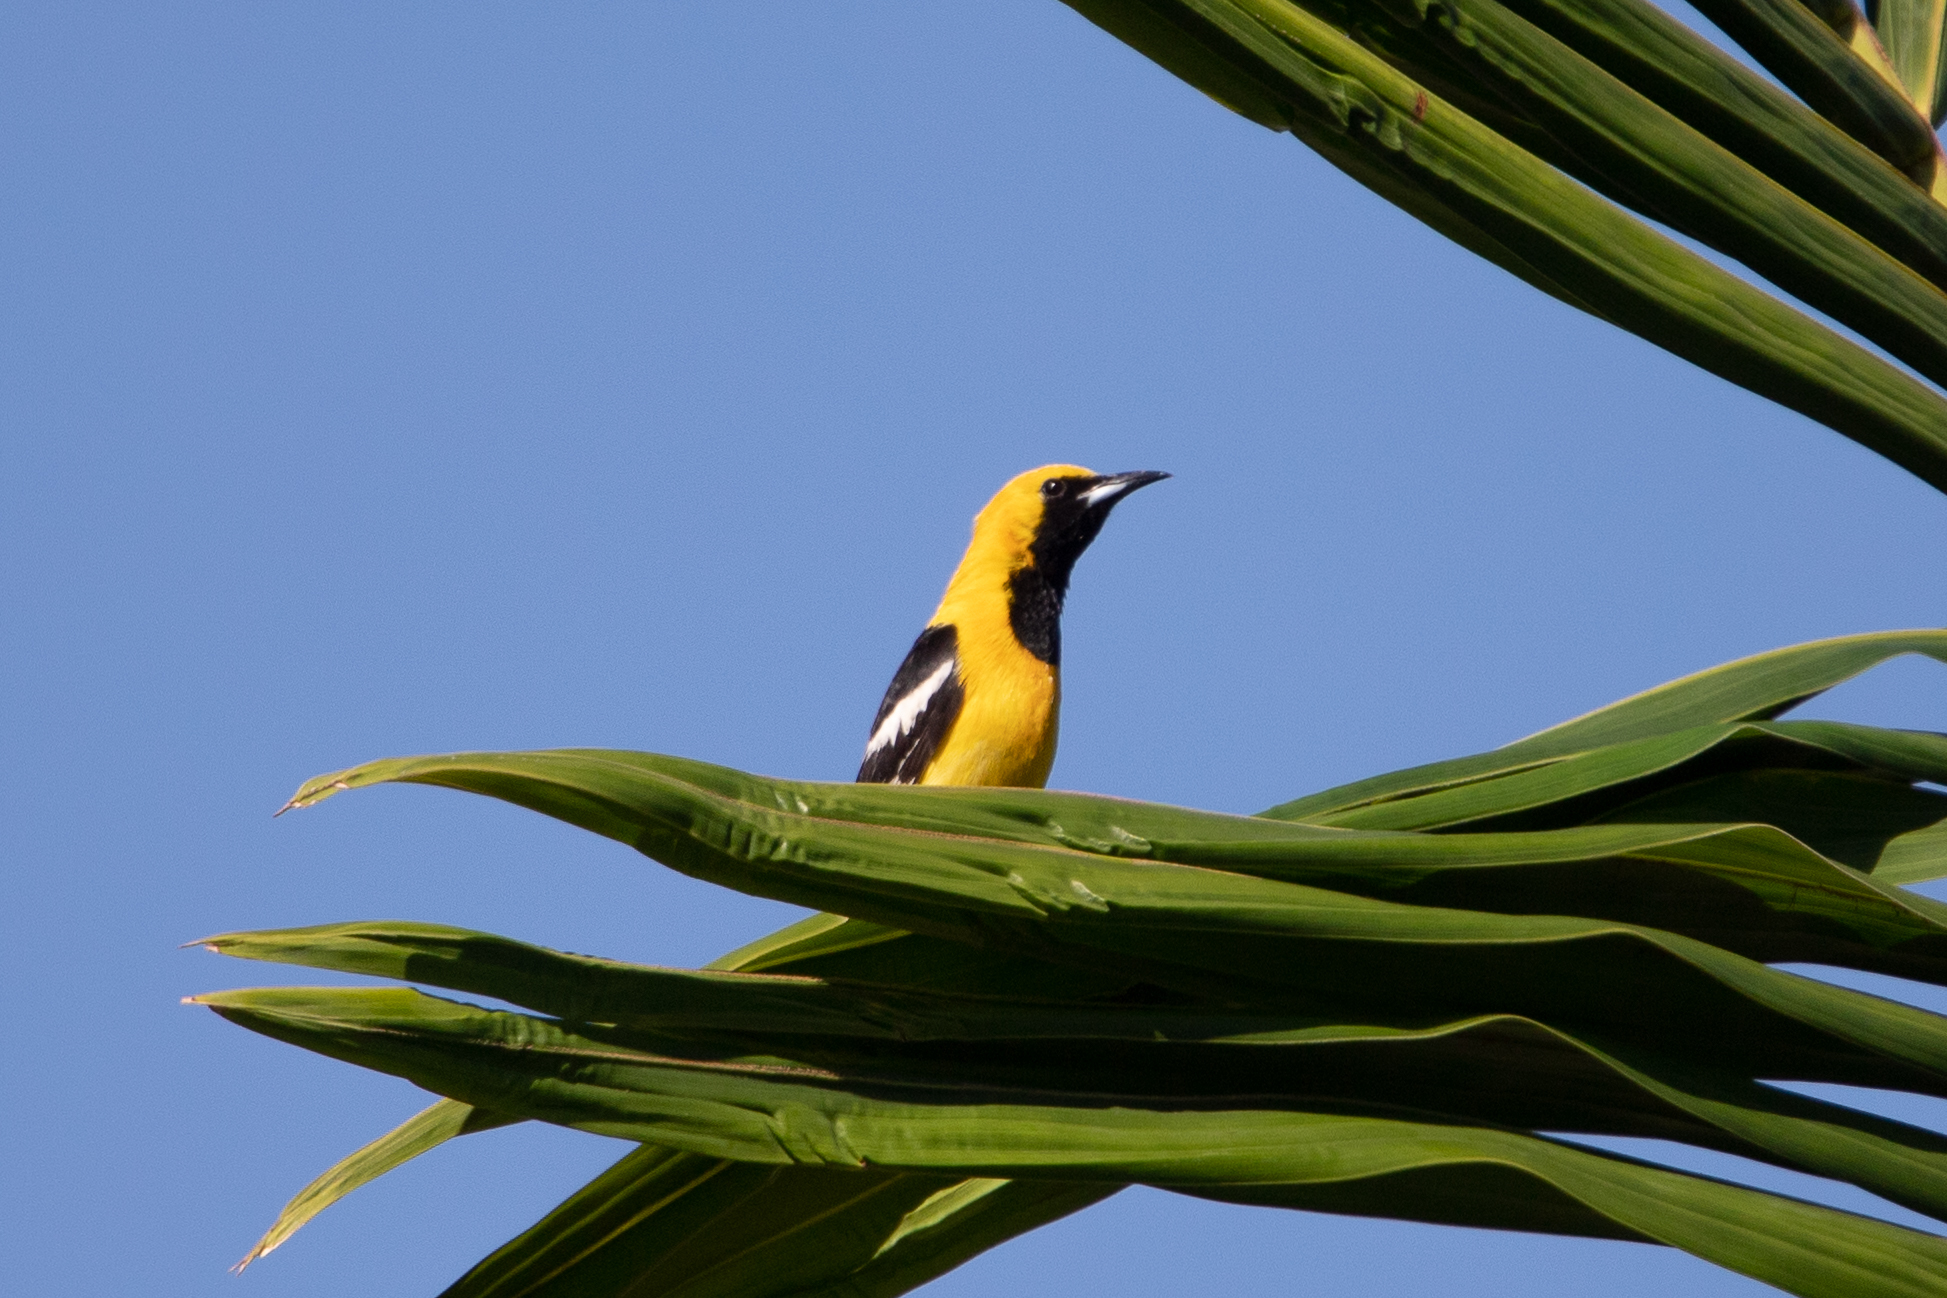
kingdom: Animalia
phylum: Chordata
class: Aves
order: Passeriformes
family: Icteridae
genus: Icterus
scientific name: Icterus cucullatus
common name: Hooded oriole
